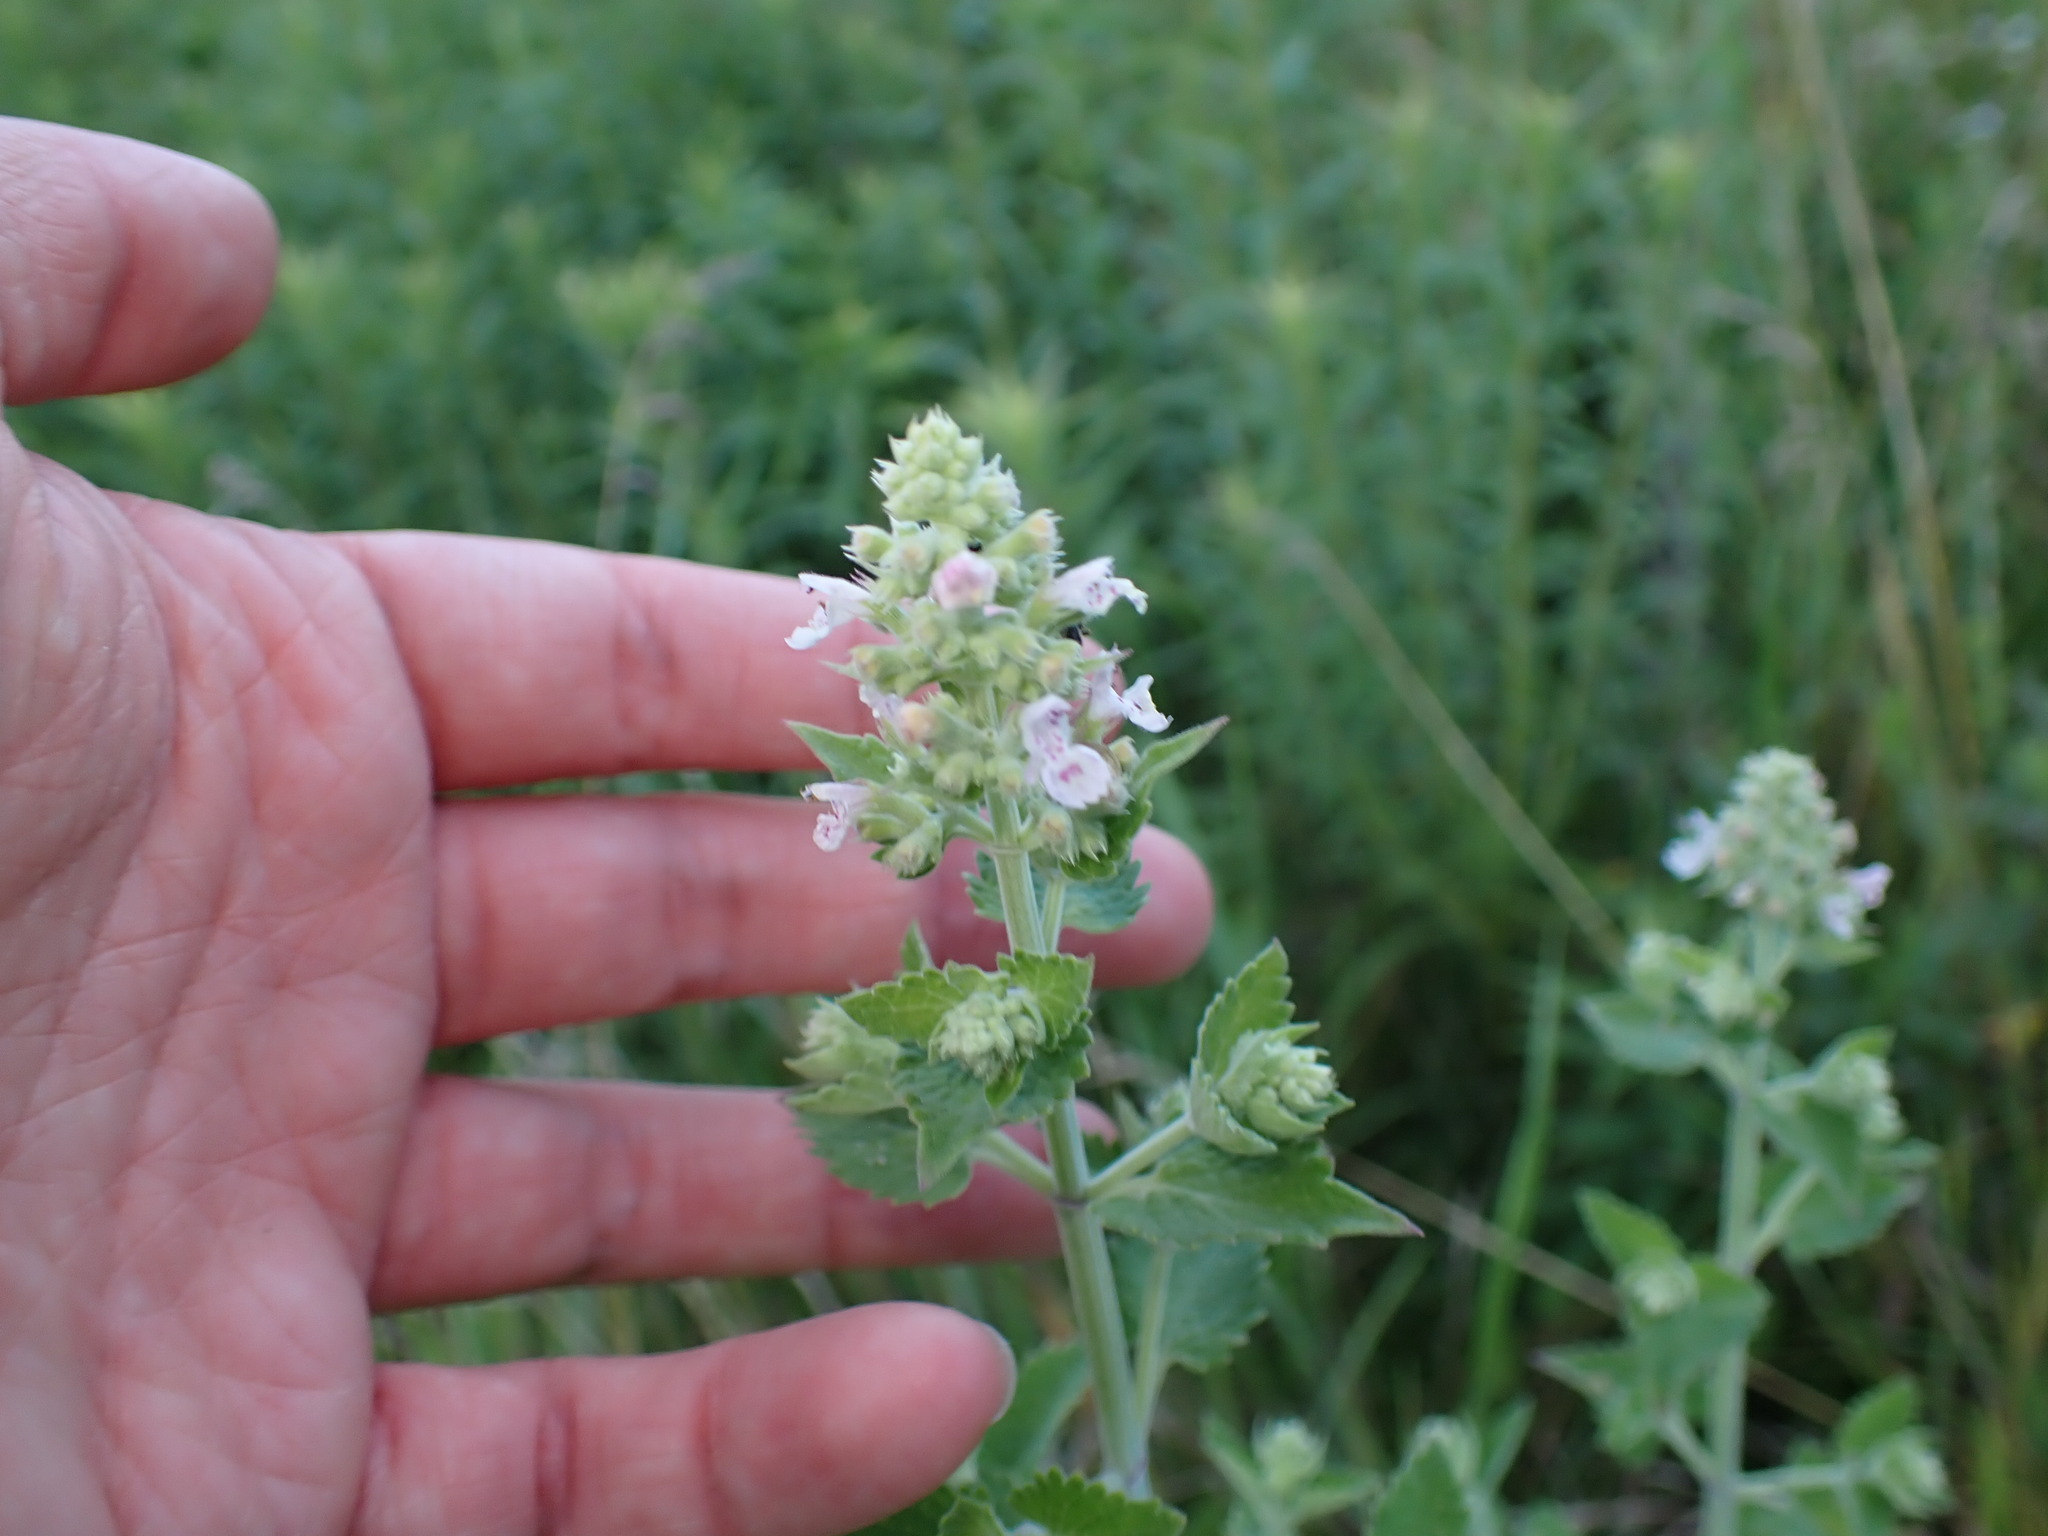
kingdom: Plantae
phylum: Tracheophyta
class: Magnoliopsida
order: Lamiales
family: Lamiaceae
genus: Nepeta
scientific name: Nepeta cataria
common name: Catnip
